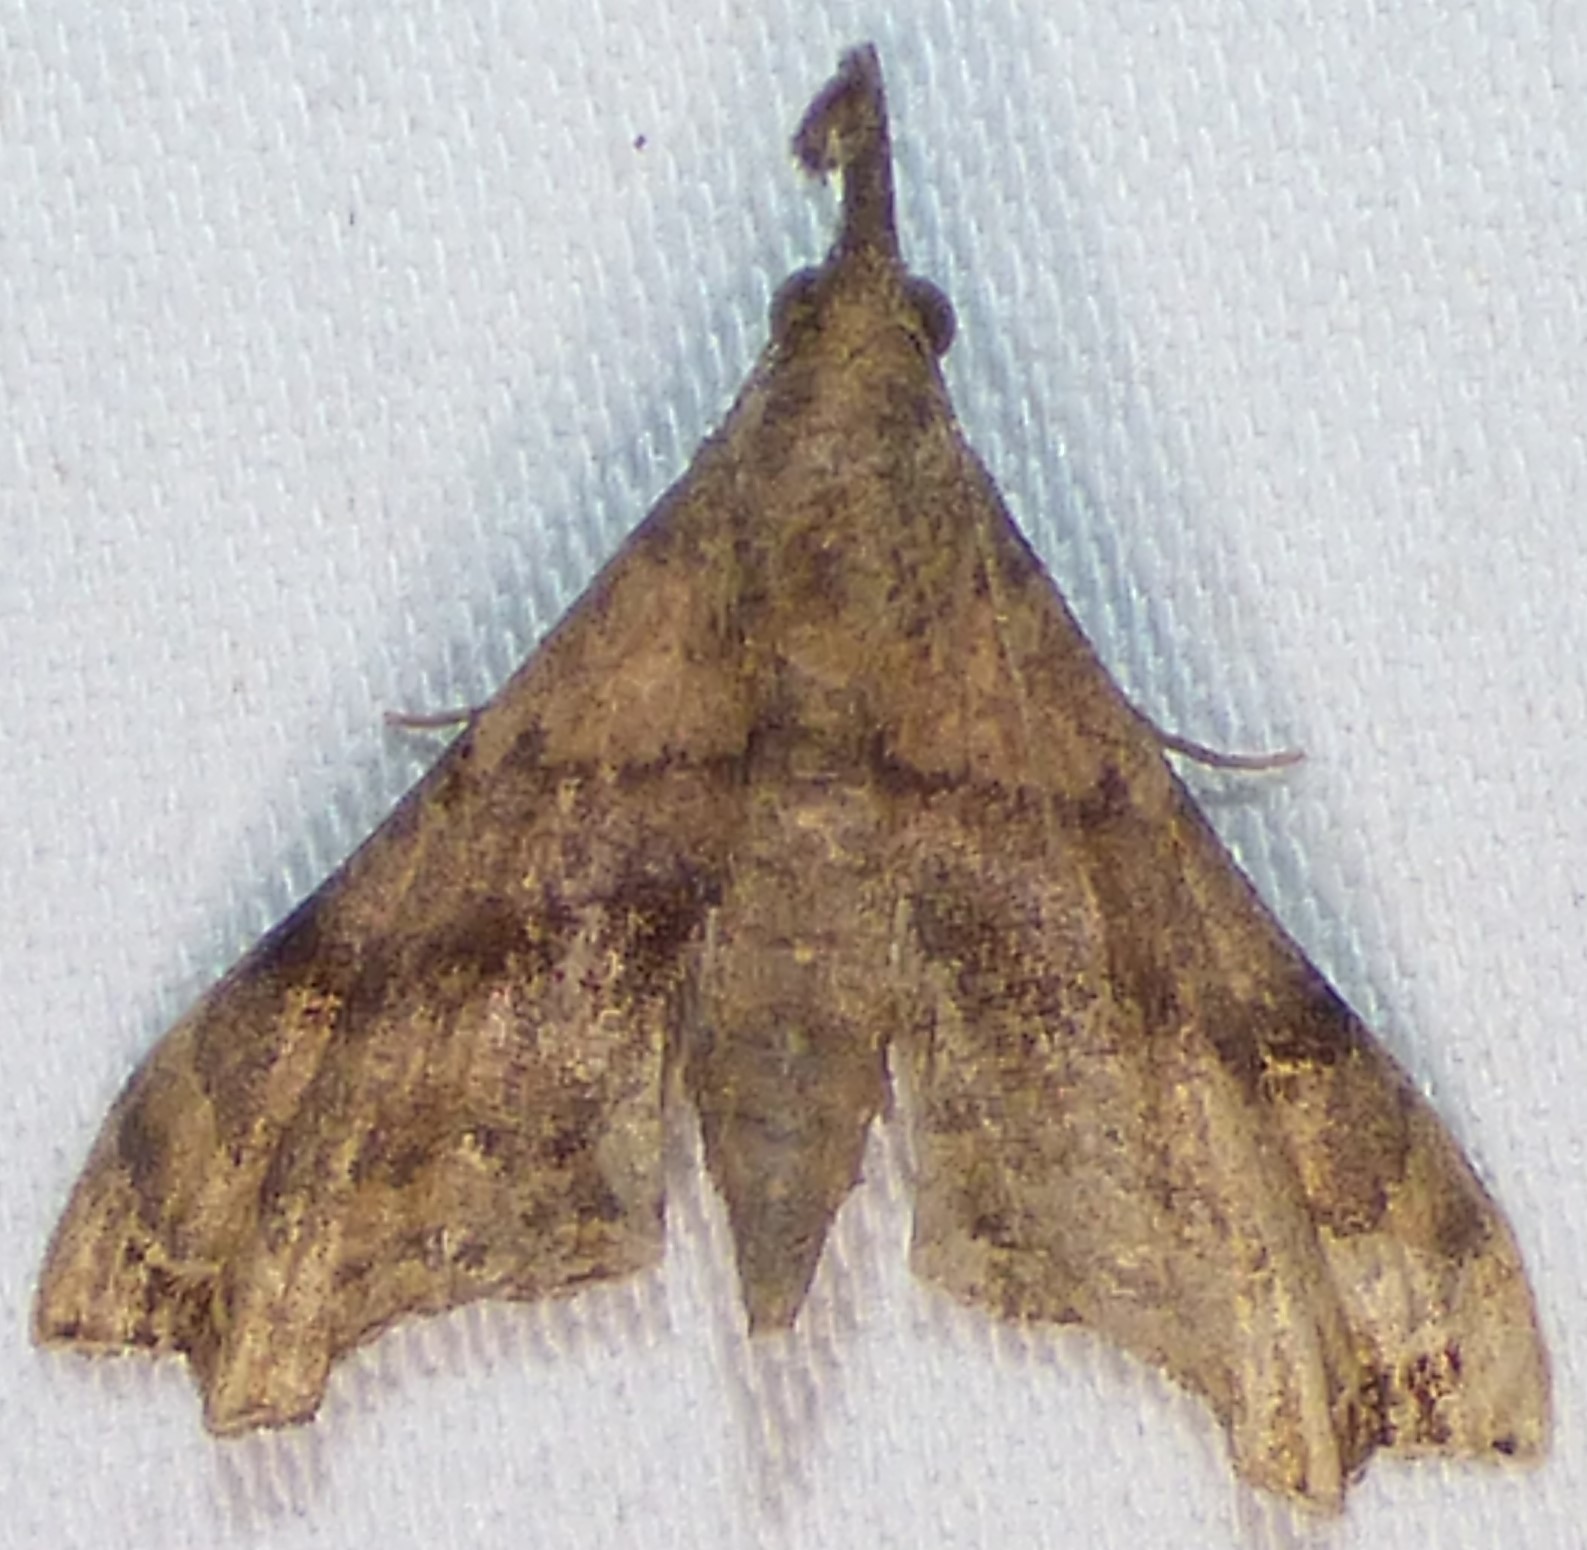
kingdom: Animalia
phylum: Arthropoda
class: Insecta
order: Lepidoptera
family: Erebidae
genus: Palthis
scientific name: Palthis asopialis
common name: Faint-spotted palthis moth
